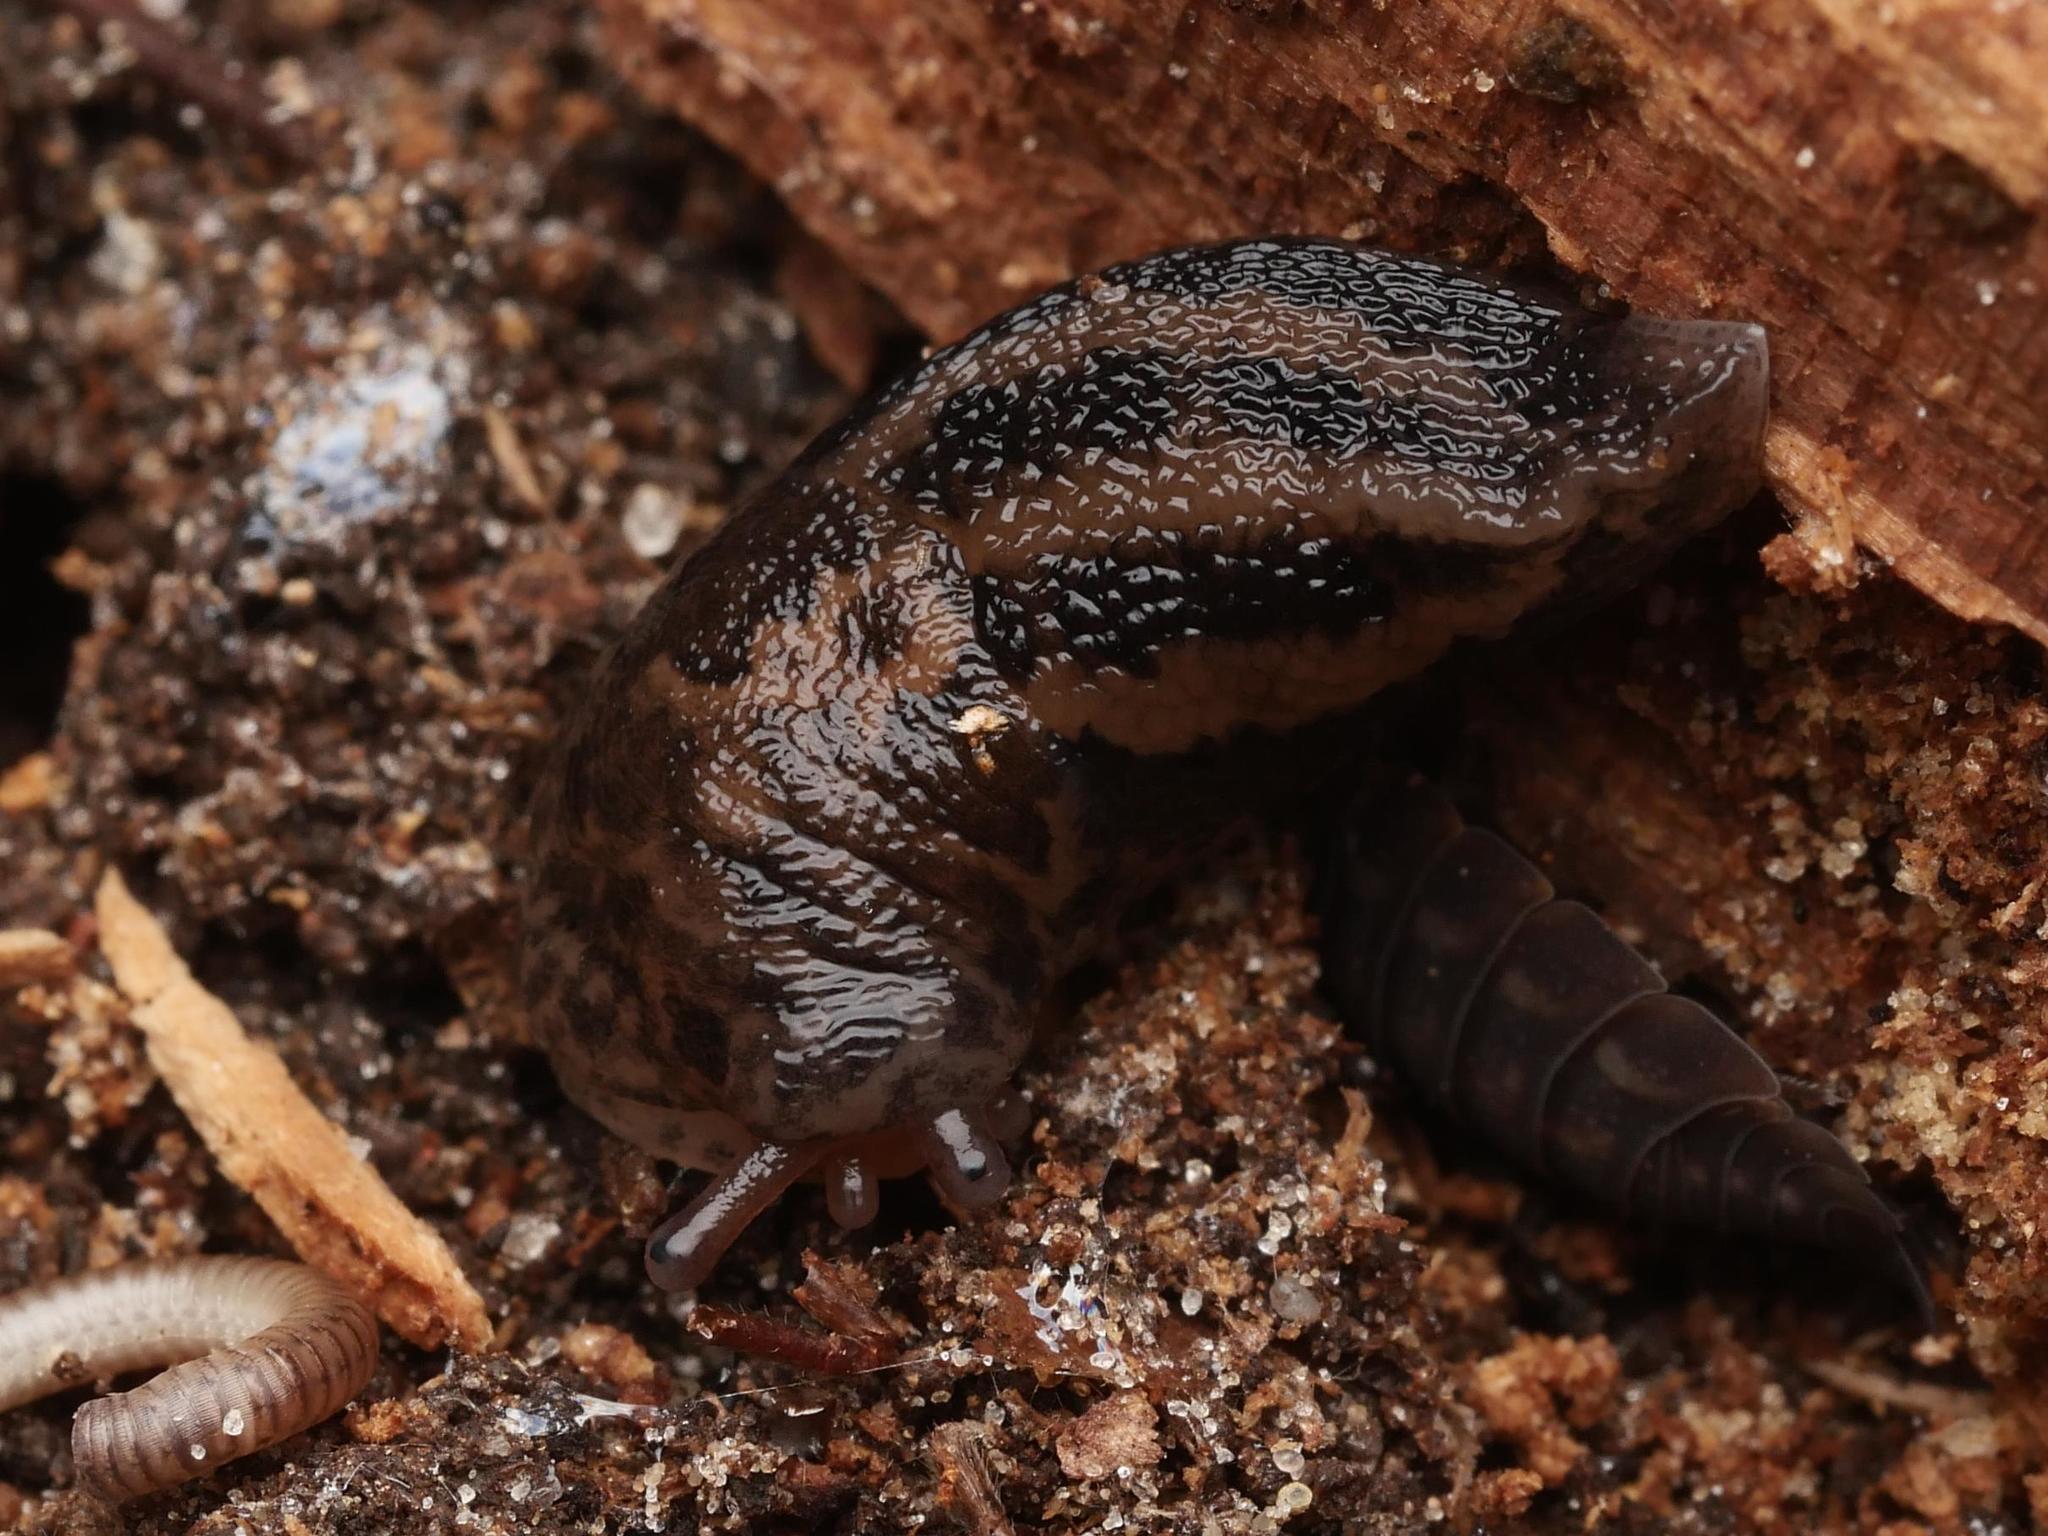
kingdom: Animalia
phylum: Mollusca
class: Gastropoda
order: Stylommatophora
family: Limacidae
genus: Limax
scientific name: Limax maximus
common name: Great grey slug
